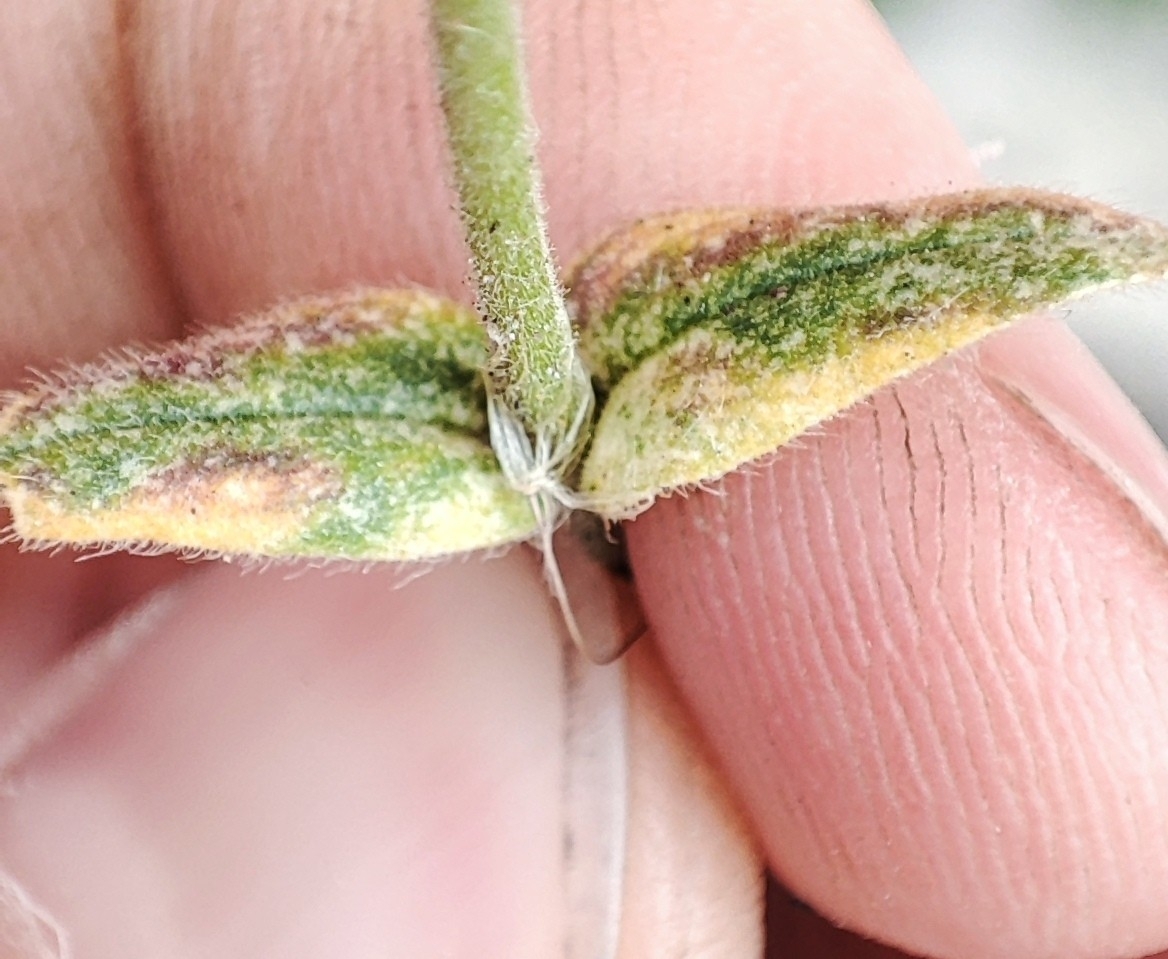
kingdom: Plantae
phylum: Tracheophyta
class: Magnoliopsida
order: Caryophyllales
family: Caryophyllaceae
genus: Cerastium
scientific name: Cerastium holosteoides
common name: Big chickweed
